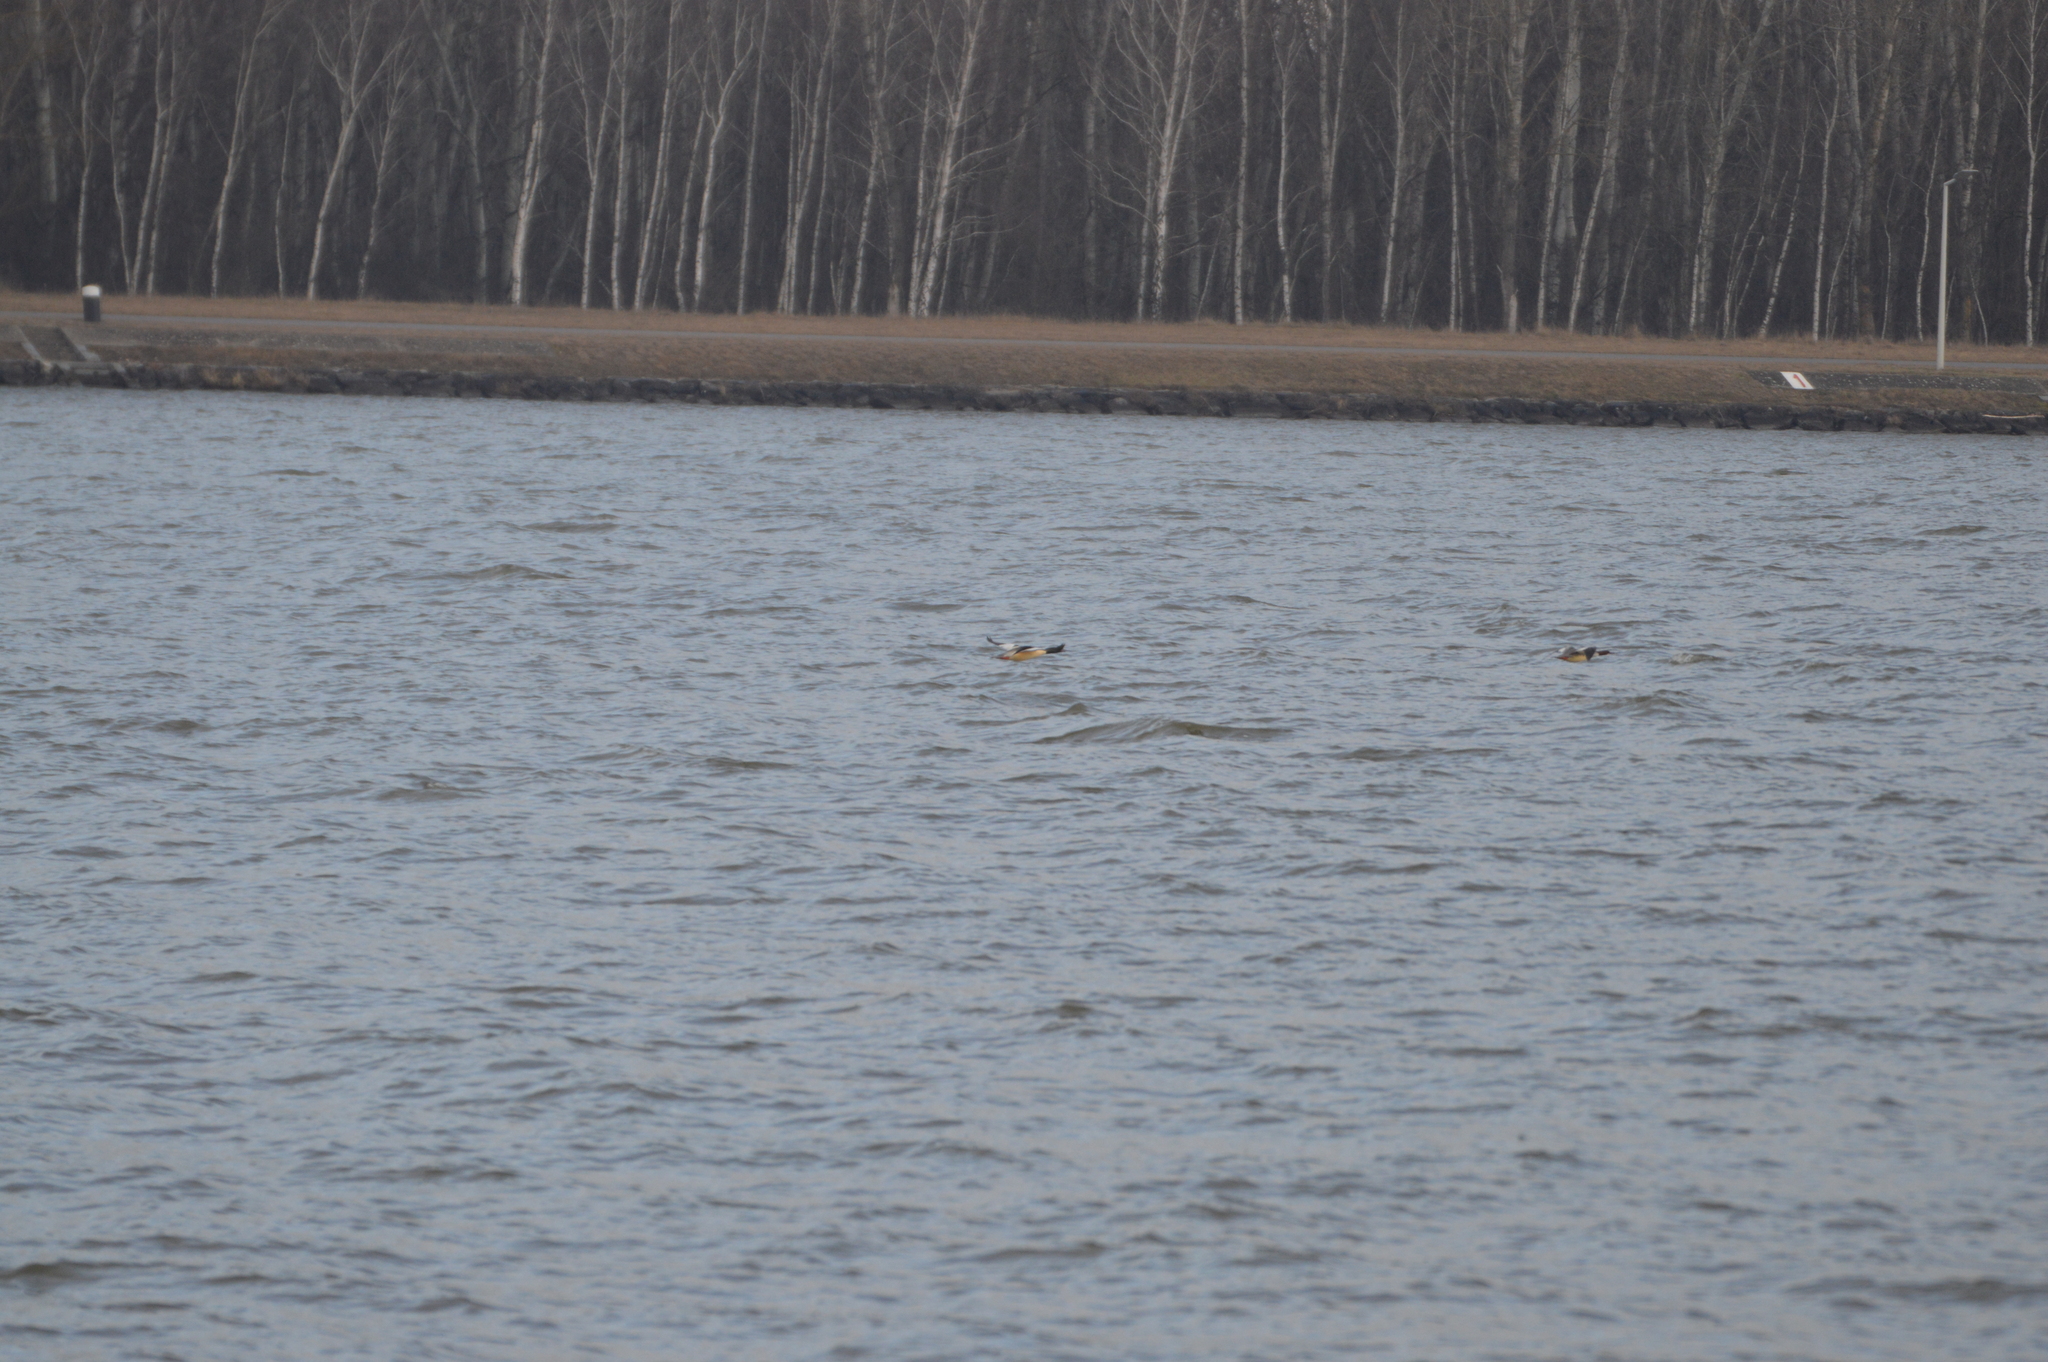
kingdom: Animalia
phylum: Chordata
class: Aves
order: Anseriformes
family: Anatidae
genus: Mergus
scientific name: Mergus merganser
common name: Common merganser
